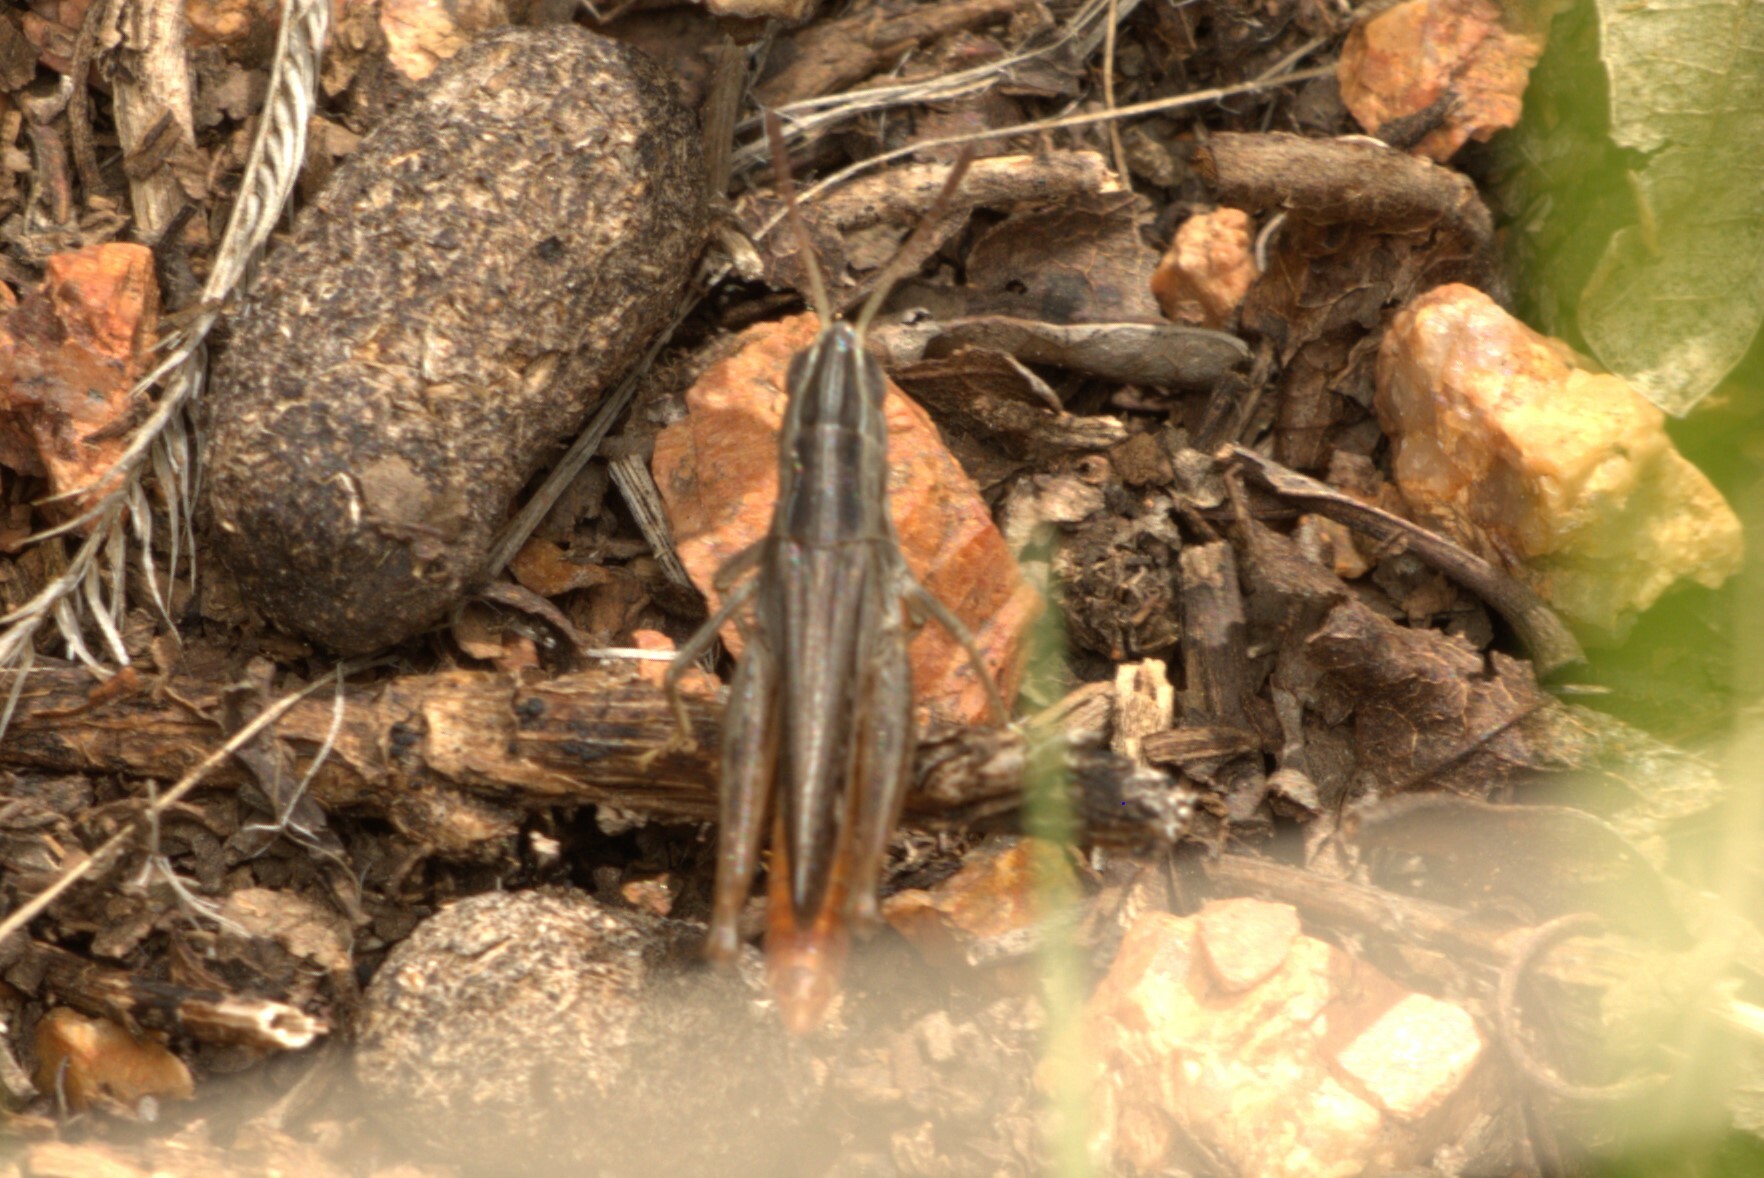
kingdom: Animalia
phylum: Arthropoda
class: Insecta
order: Orthoptera
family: Acrididae
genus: Eritettix
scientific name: Eritettix simplex
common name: Velvet-striped grasshopper
